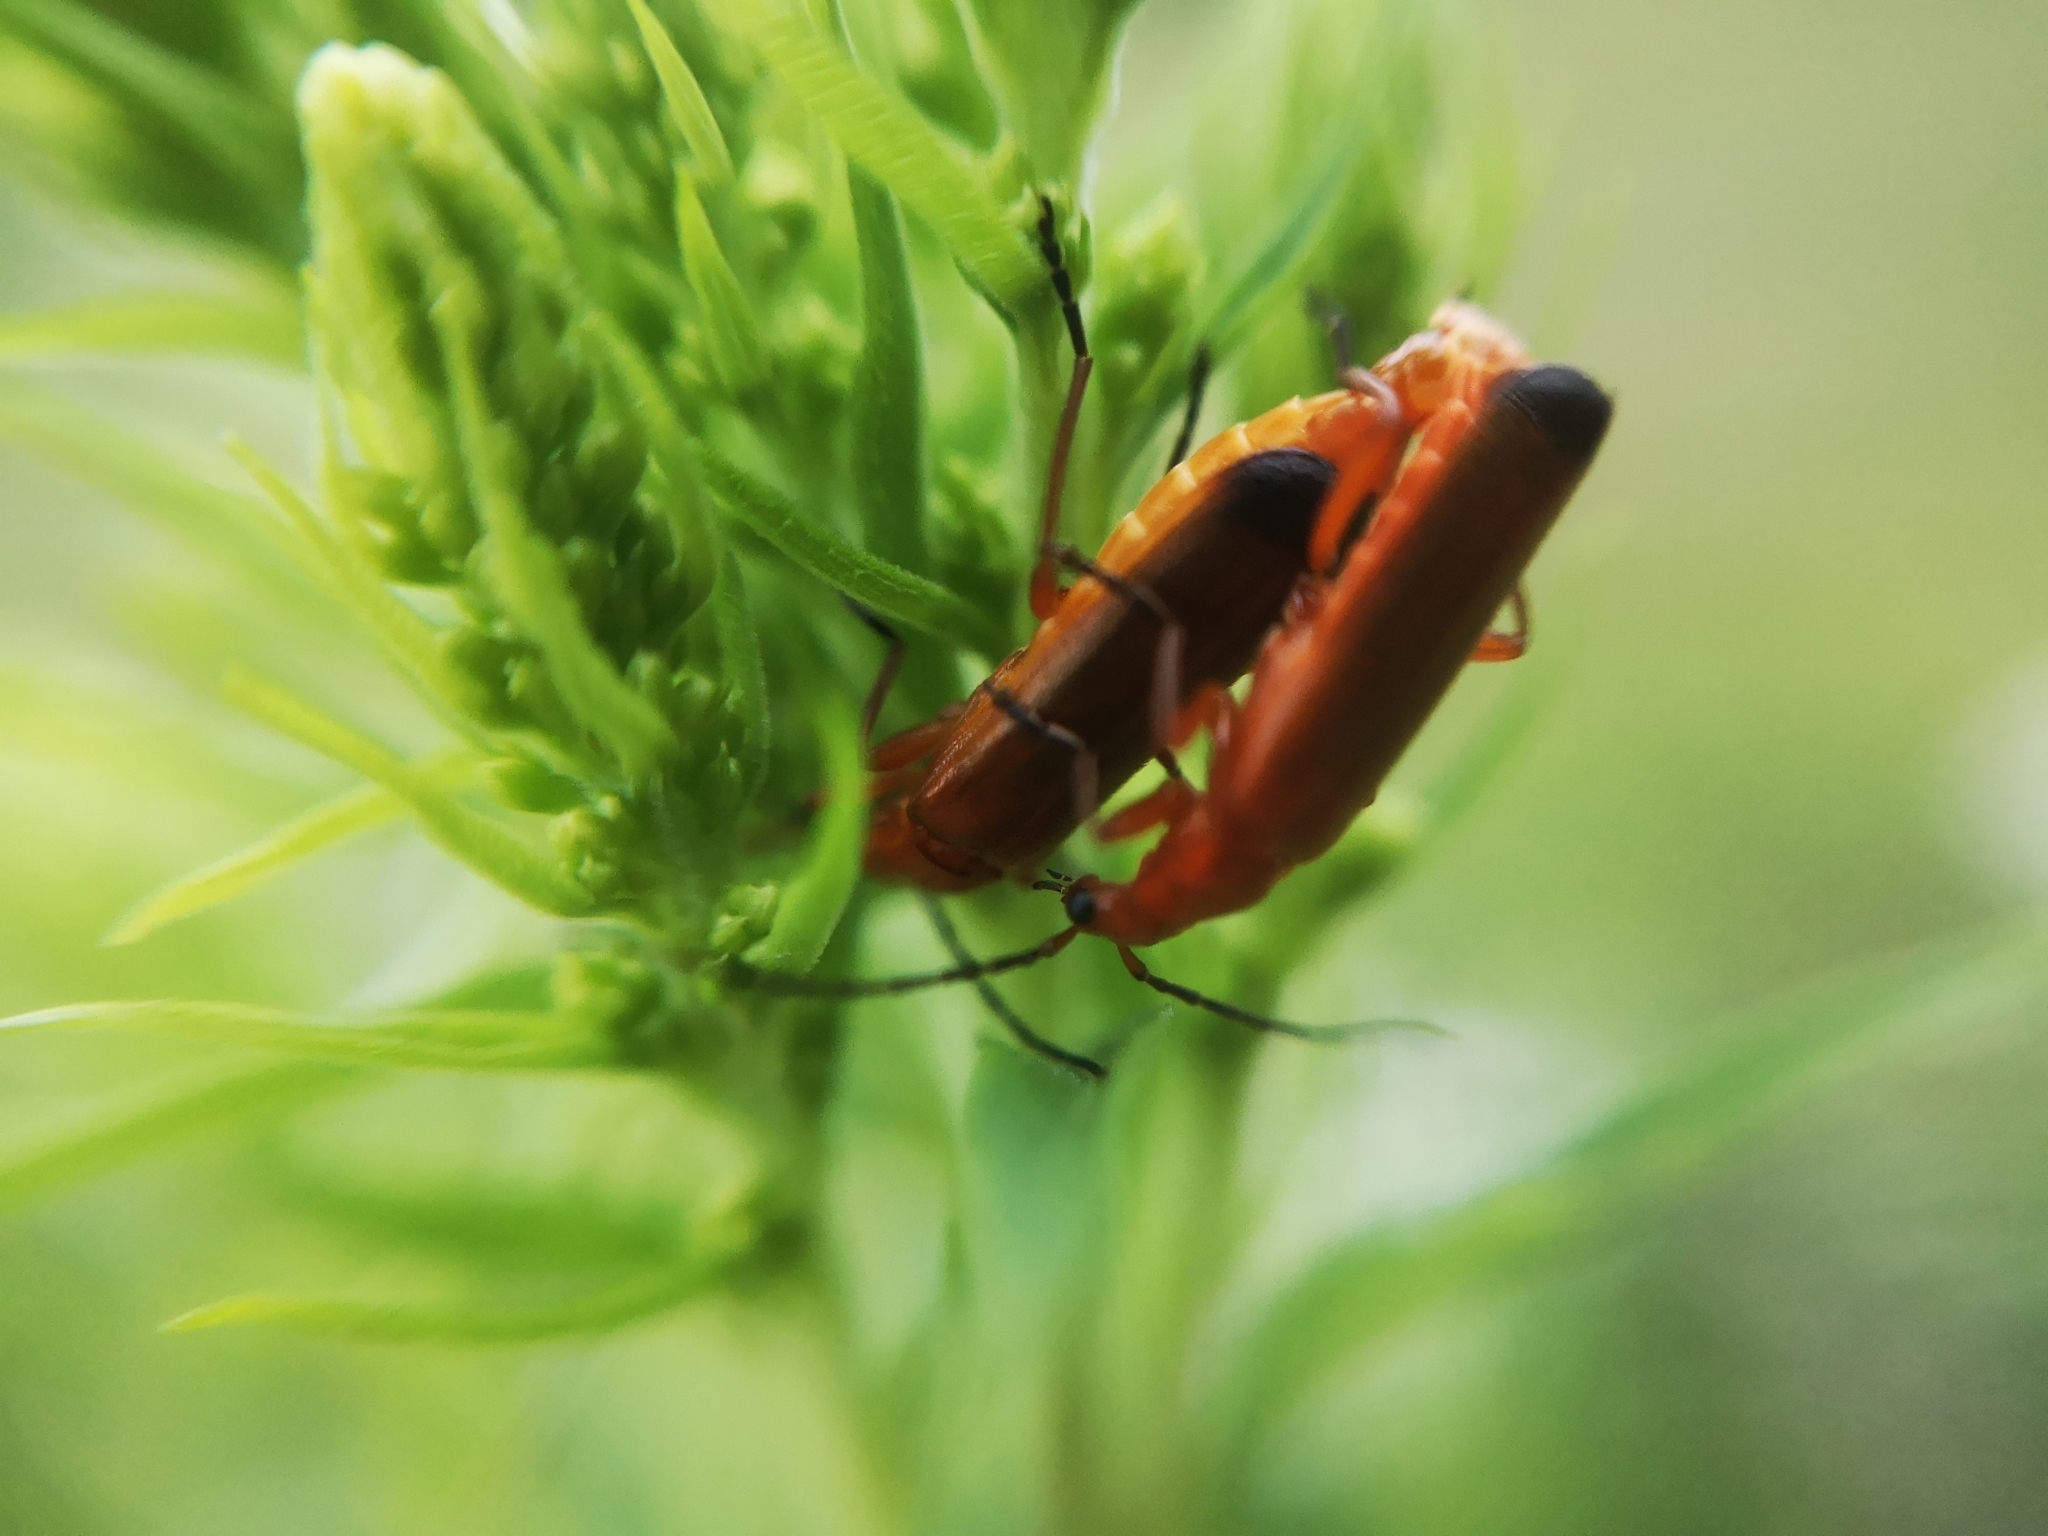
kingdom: Animalia
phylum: Arthropoda
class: Insecta
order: Coleoptera
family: Cantharidae
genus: Rhagonycha
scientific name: Rhagonycha fulva
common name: Common red soldier beetle
